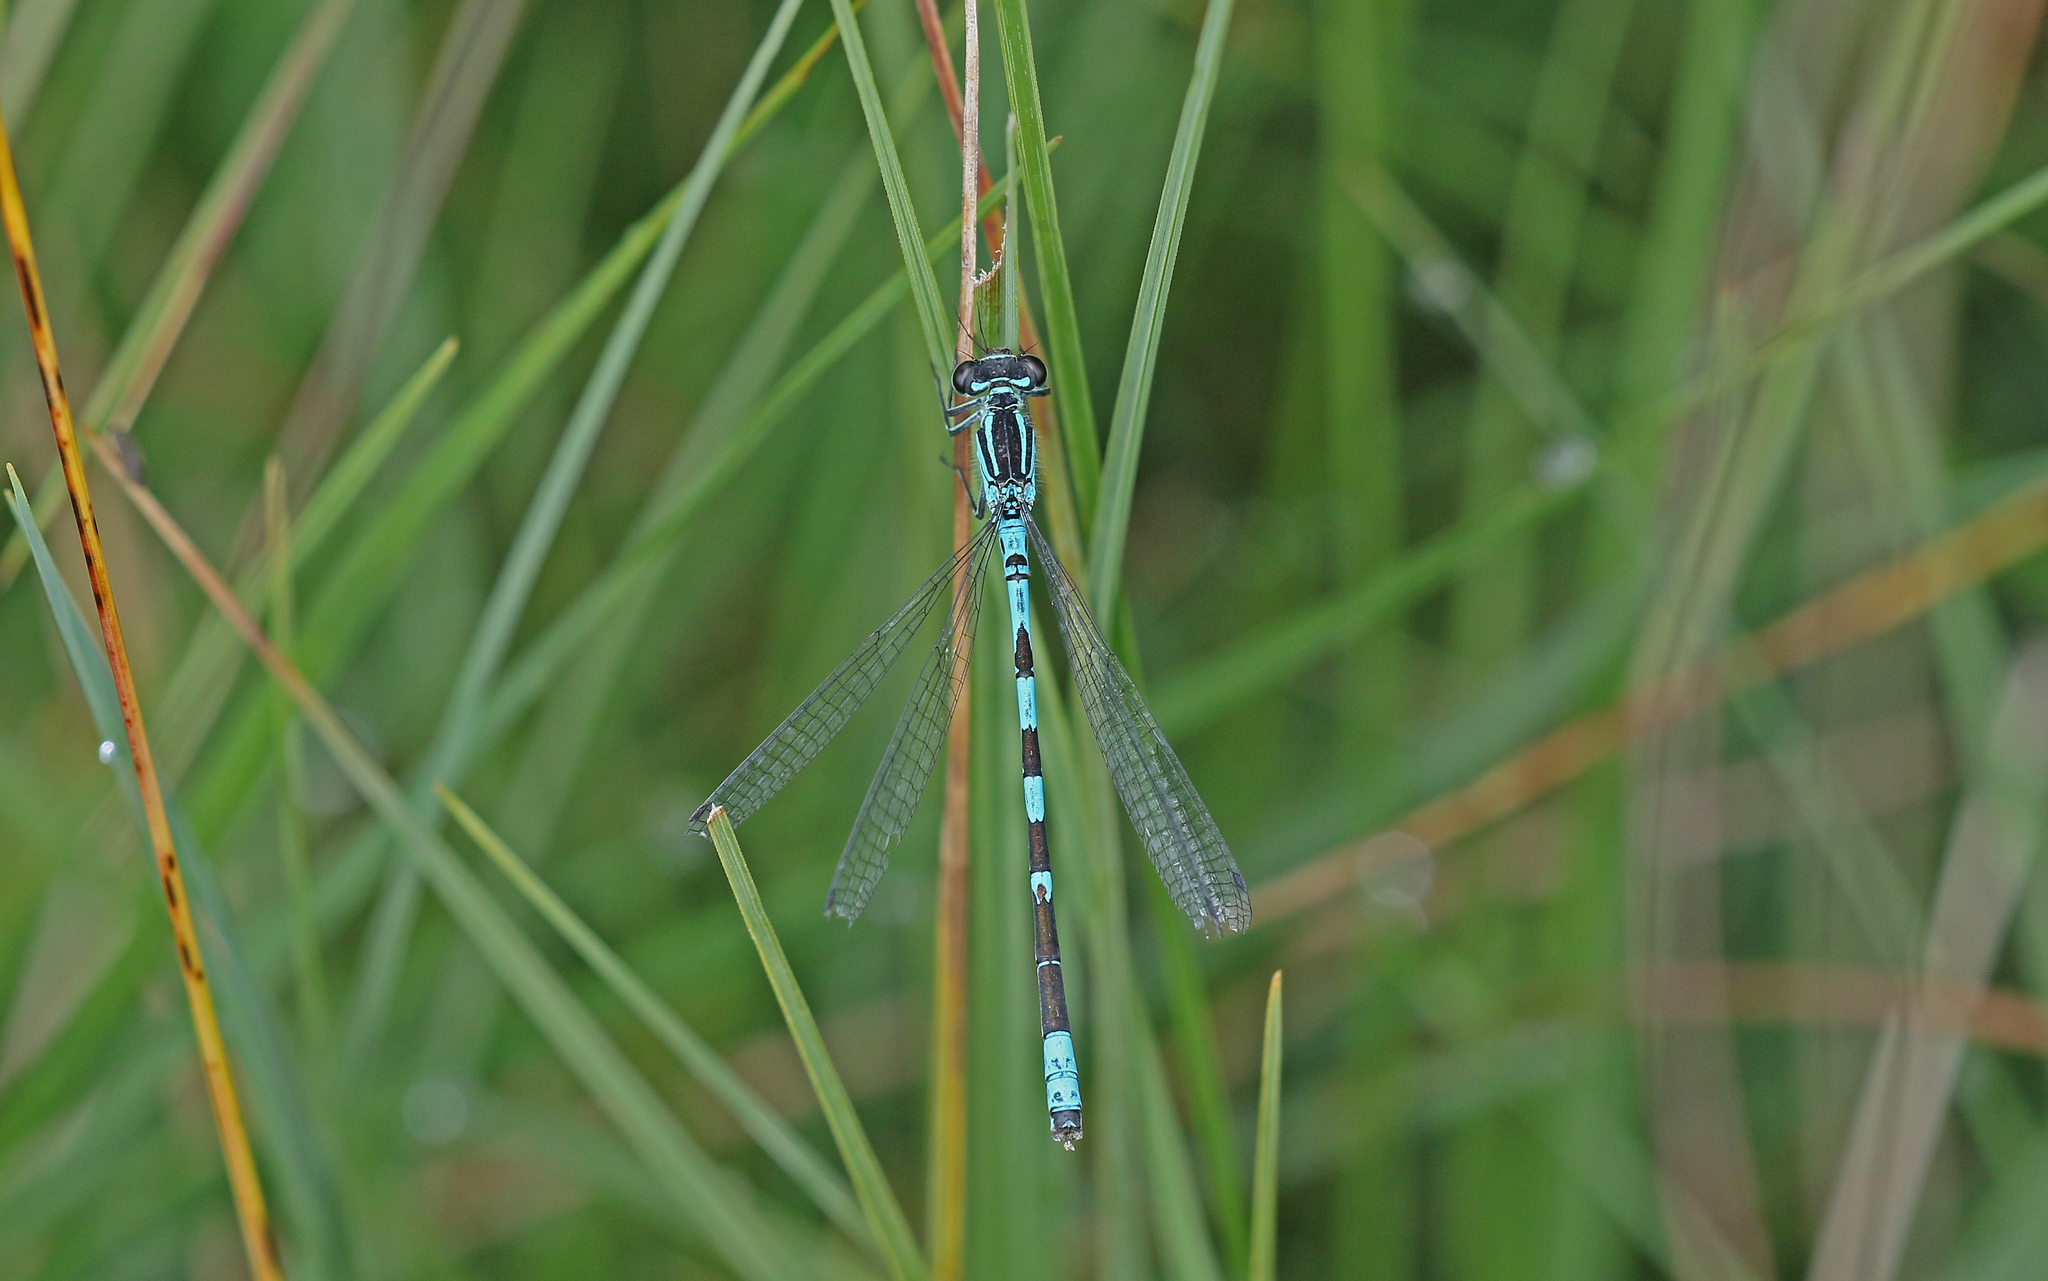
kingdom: Animalia
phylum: Arthropoda
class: Insecta
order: Odonata
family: Coenagrionidae
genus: Coenagrion
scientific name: Coenagrion hastulatum
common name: Spearhead bluet
